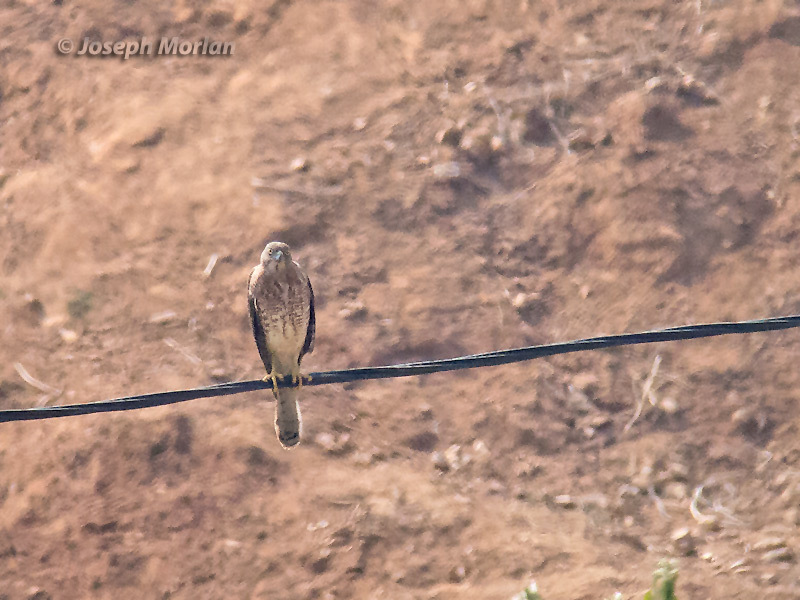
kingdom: Animalia
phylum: Chordata
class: Aves
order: Accipitriformes
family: Accipitridae
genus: Accipiter
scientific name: Accipiter badius
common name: Shikra
